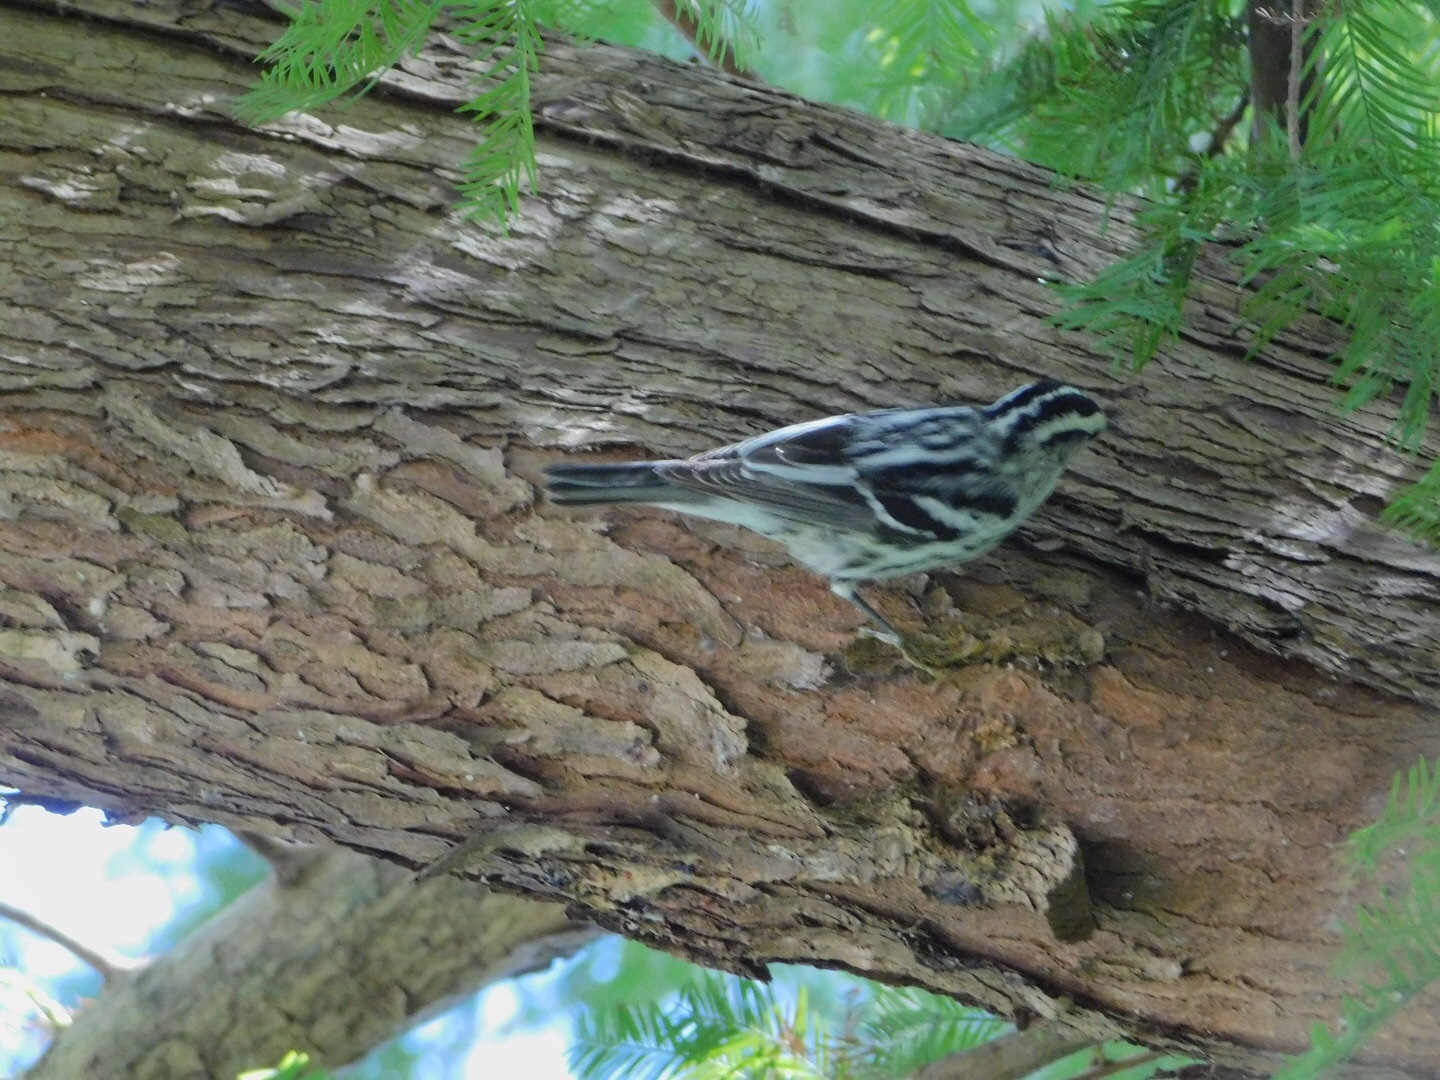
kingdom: Animalia
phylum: Chordata
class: Aves
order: Passeriformes
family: Parulidae
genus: Mniotilta
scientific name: Mniotilta varia
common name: Black-and-white warbler
